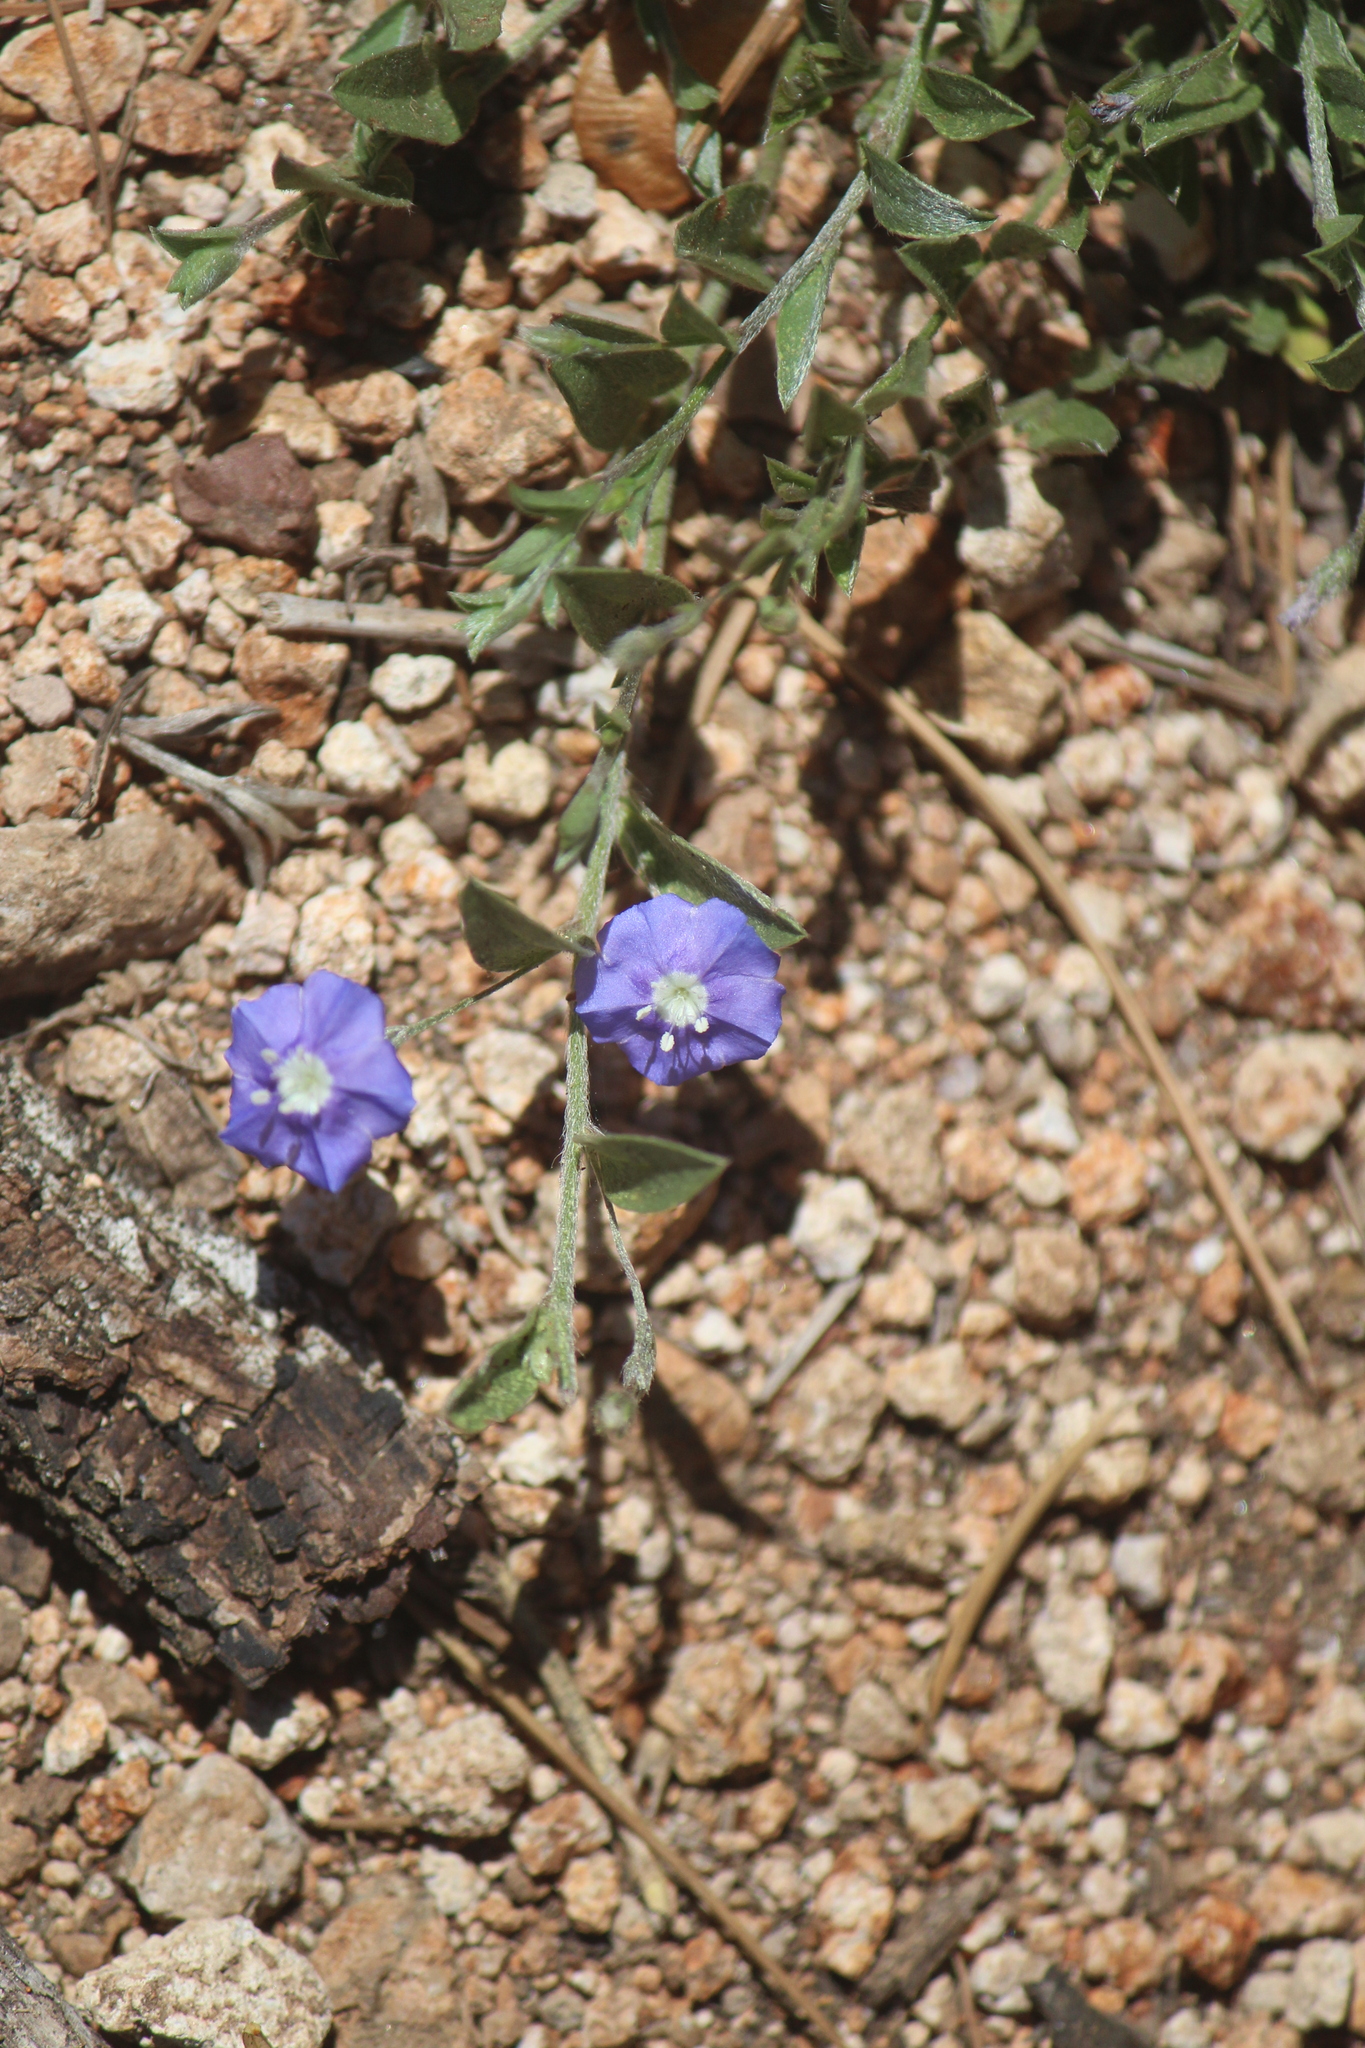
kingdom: Plantae
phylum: Tracheophyta
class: Magnoliopsida
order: Solanales
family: Convolvulaceae
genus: Evolvulus
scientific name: Evolvulus alsinoides
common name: Slender dwarf morning-glory
